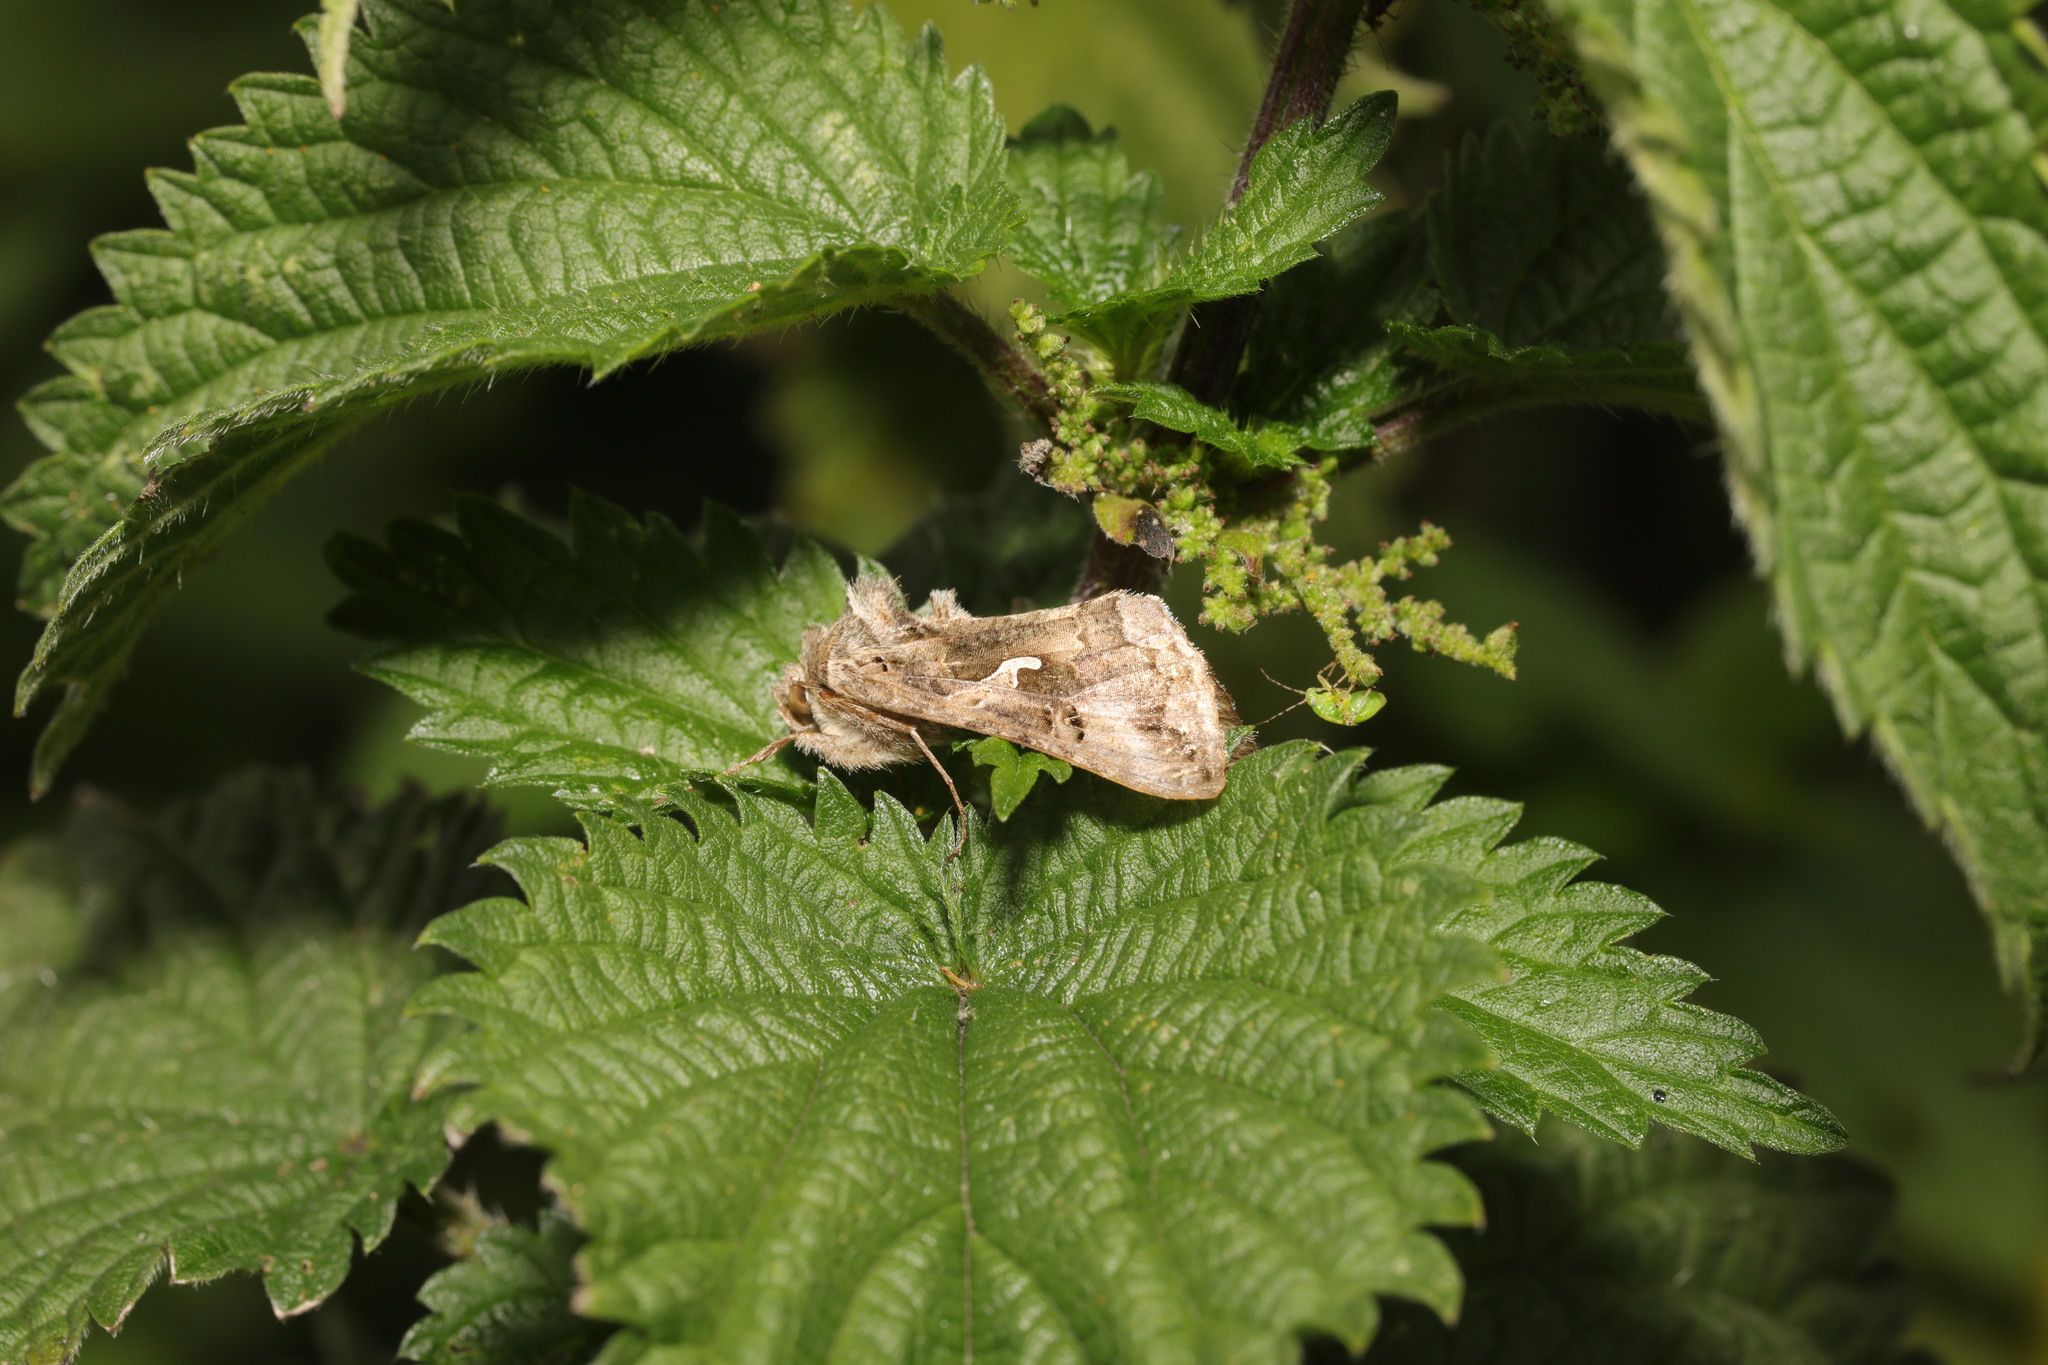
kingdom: Animalia
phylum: Arthropoda
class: Insecta
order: Lepidoptera
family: Noctuidae
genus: Autographa
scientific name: Autographa gamma
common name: Silver y
